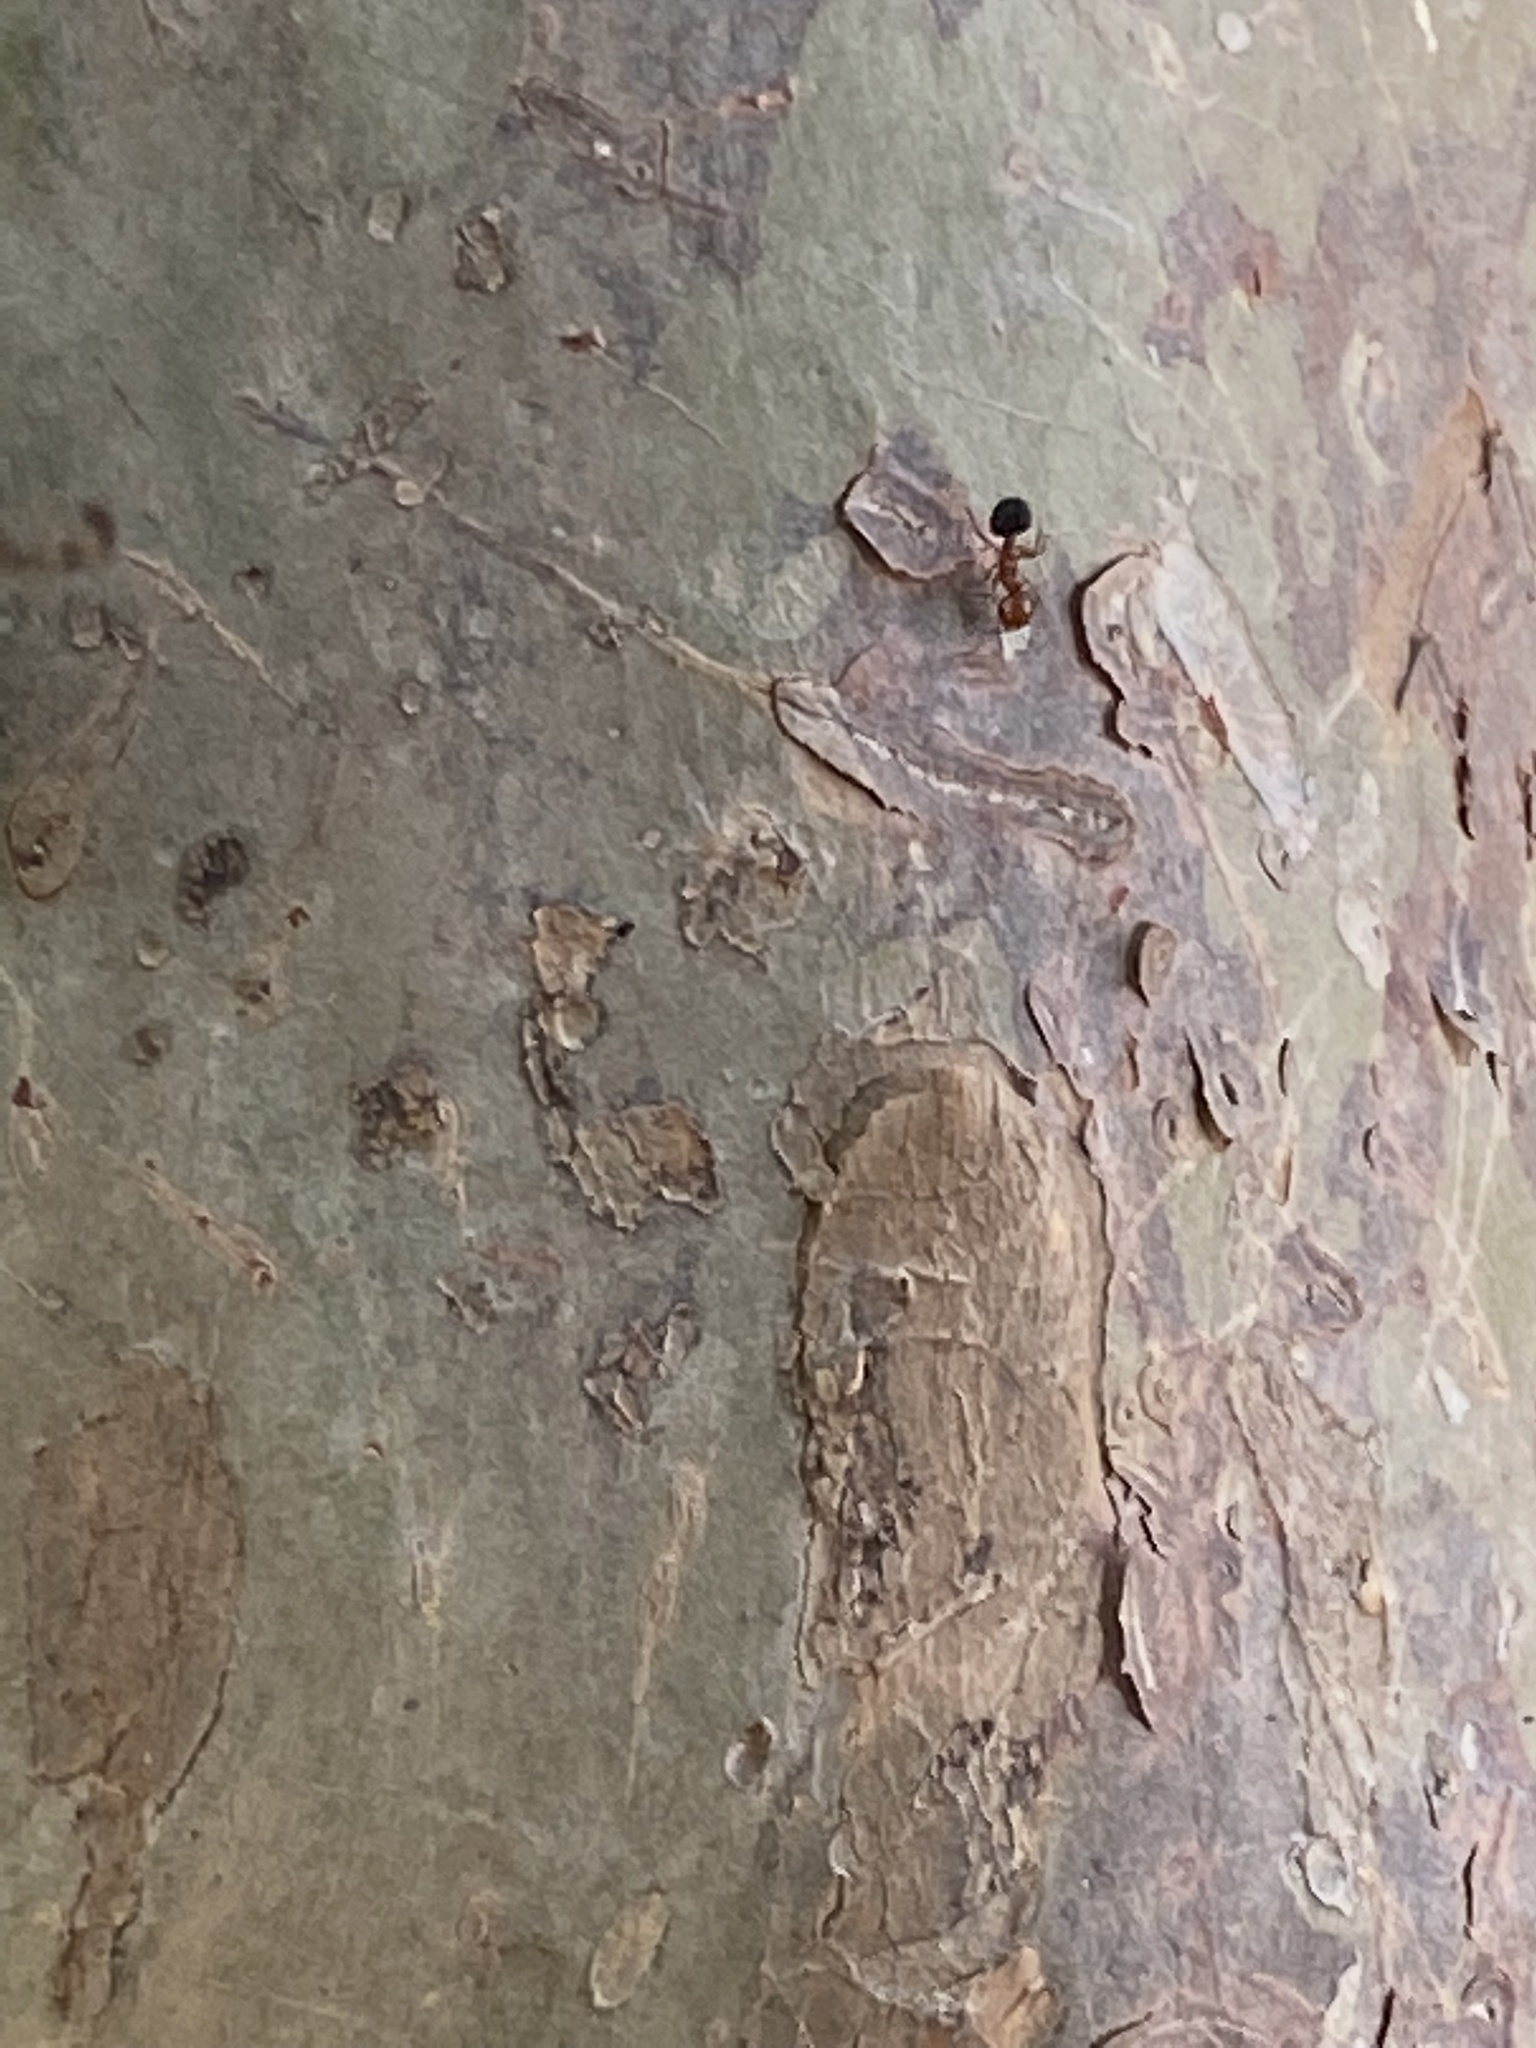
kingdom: Animalia
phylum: Arthropoda
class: Insecta
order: Hymenoptera
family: Formicidae
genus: Crematogaster
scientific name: Crematogaster laeviuscula
